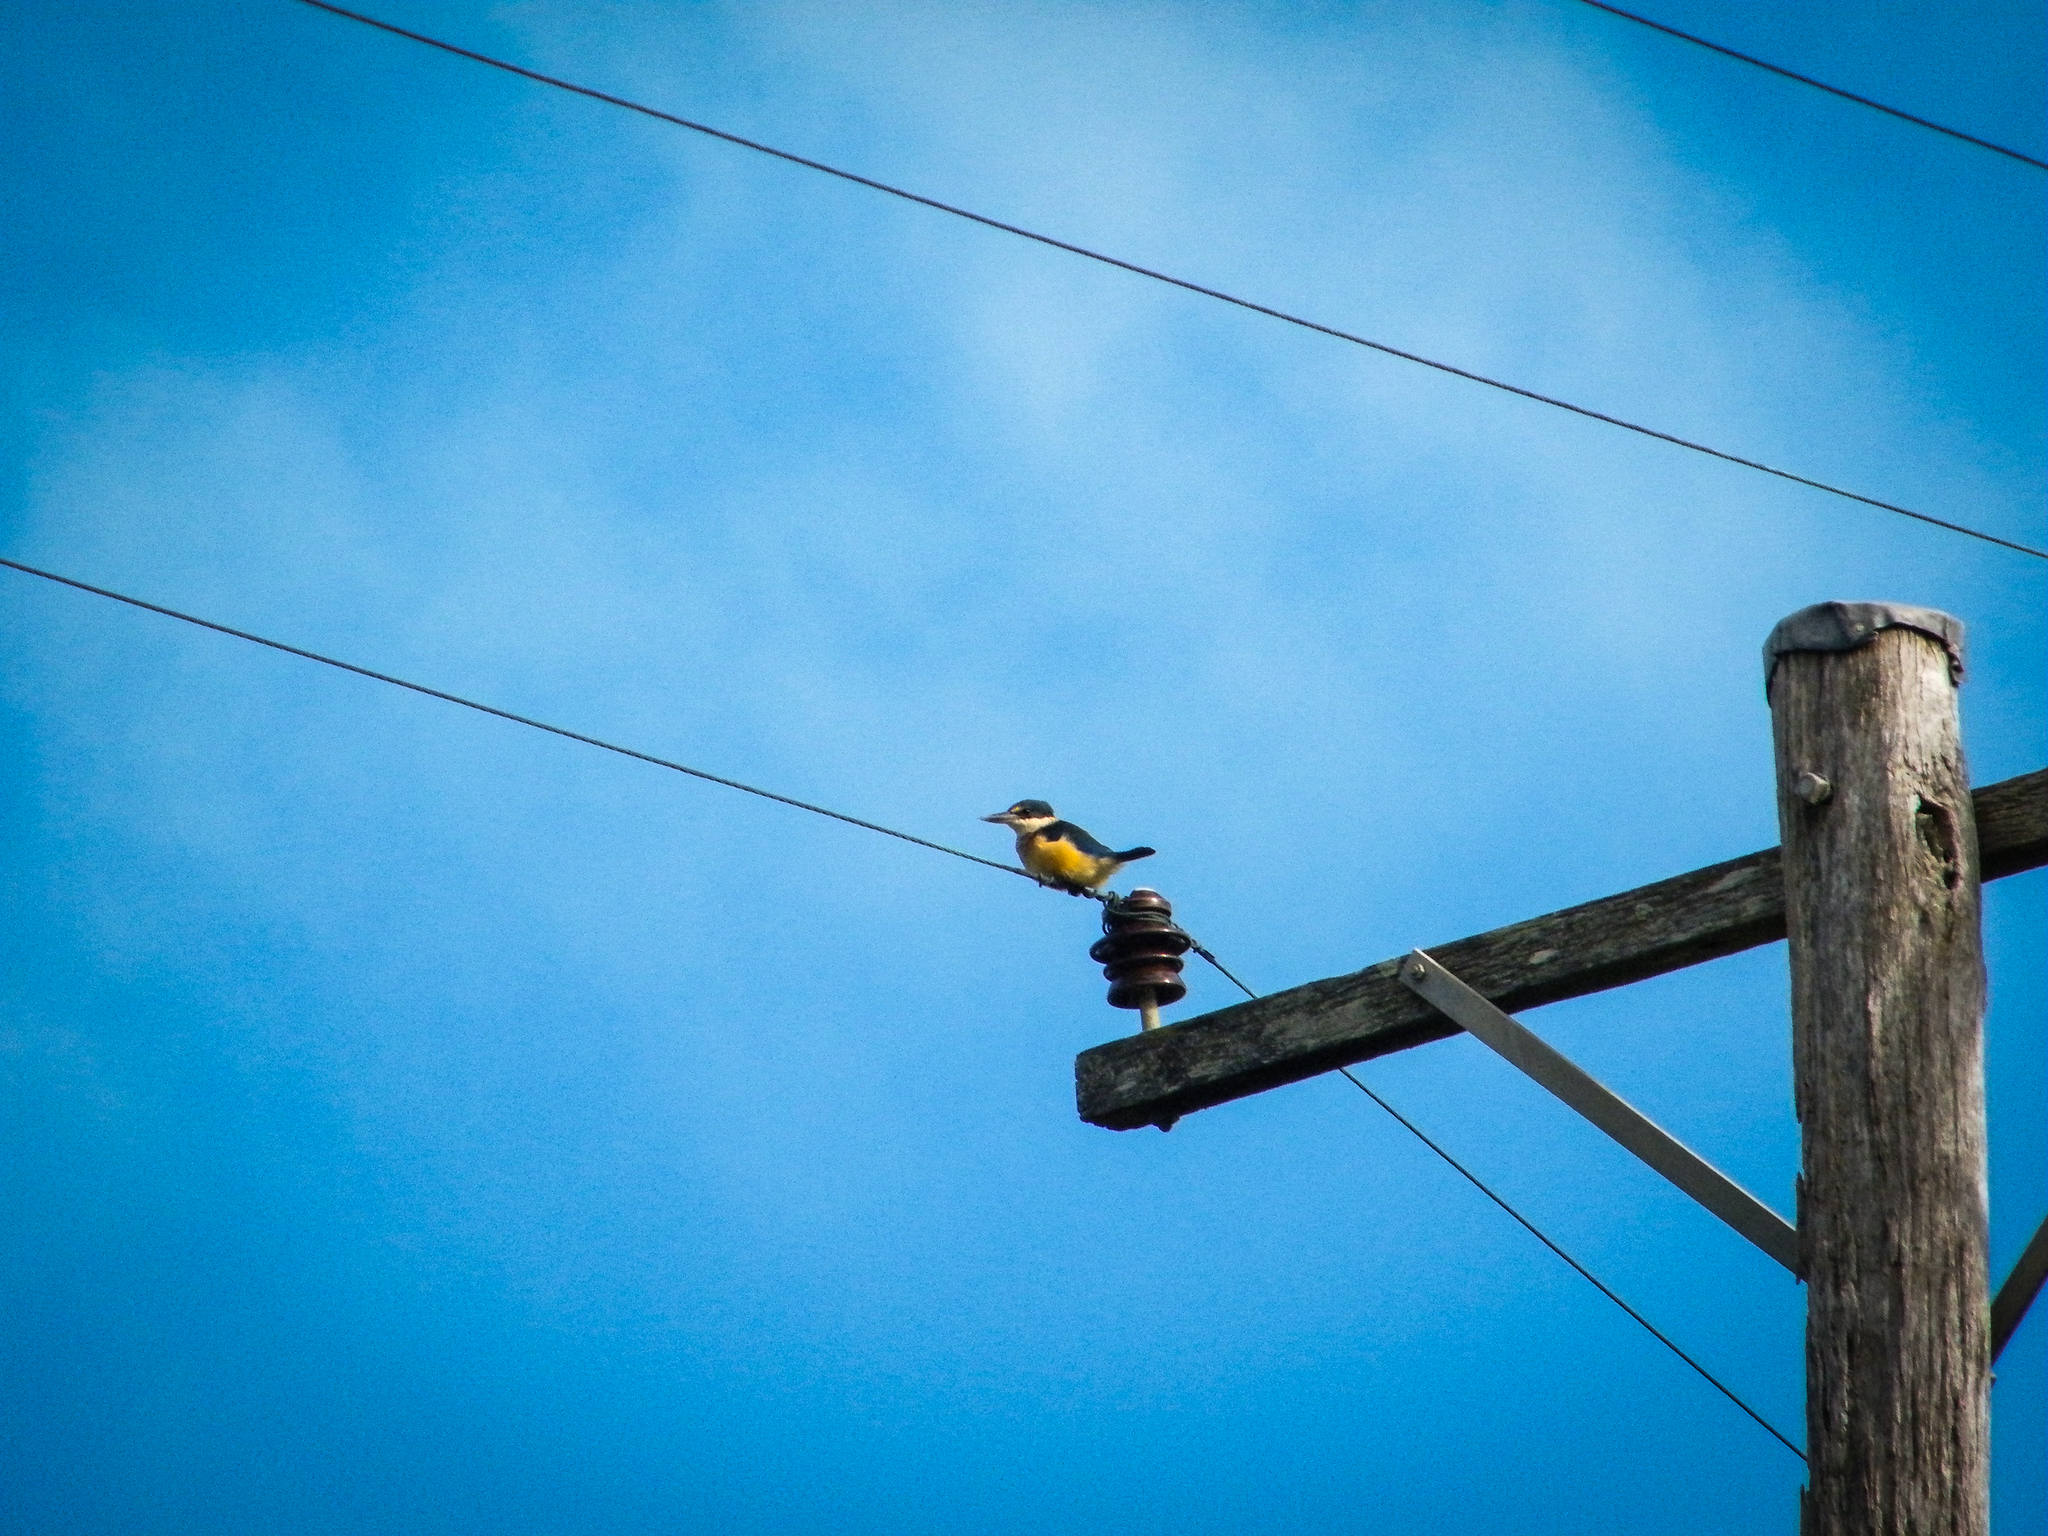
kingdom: Animalia
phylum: Chordata
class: Aves
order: Coraciiformes
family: Alcedinidae
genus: Todiramphus
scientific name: Todiramphus sanctus
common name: Sacred kingfisher
